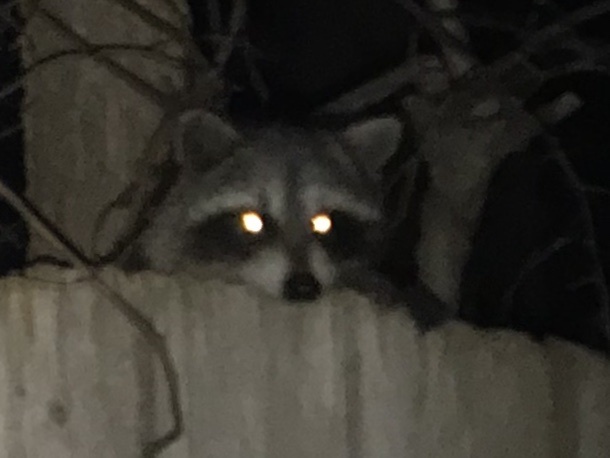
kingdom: Animalia
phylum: Chordata
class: Mammalia
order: Carnivora
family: Procyonidae
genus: Procyon
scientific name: Procyon lotor
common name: Raccoon
